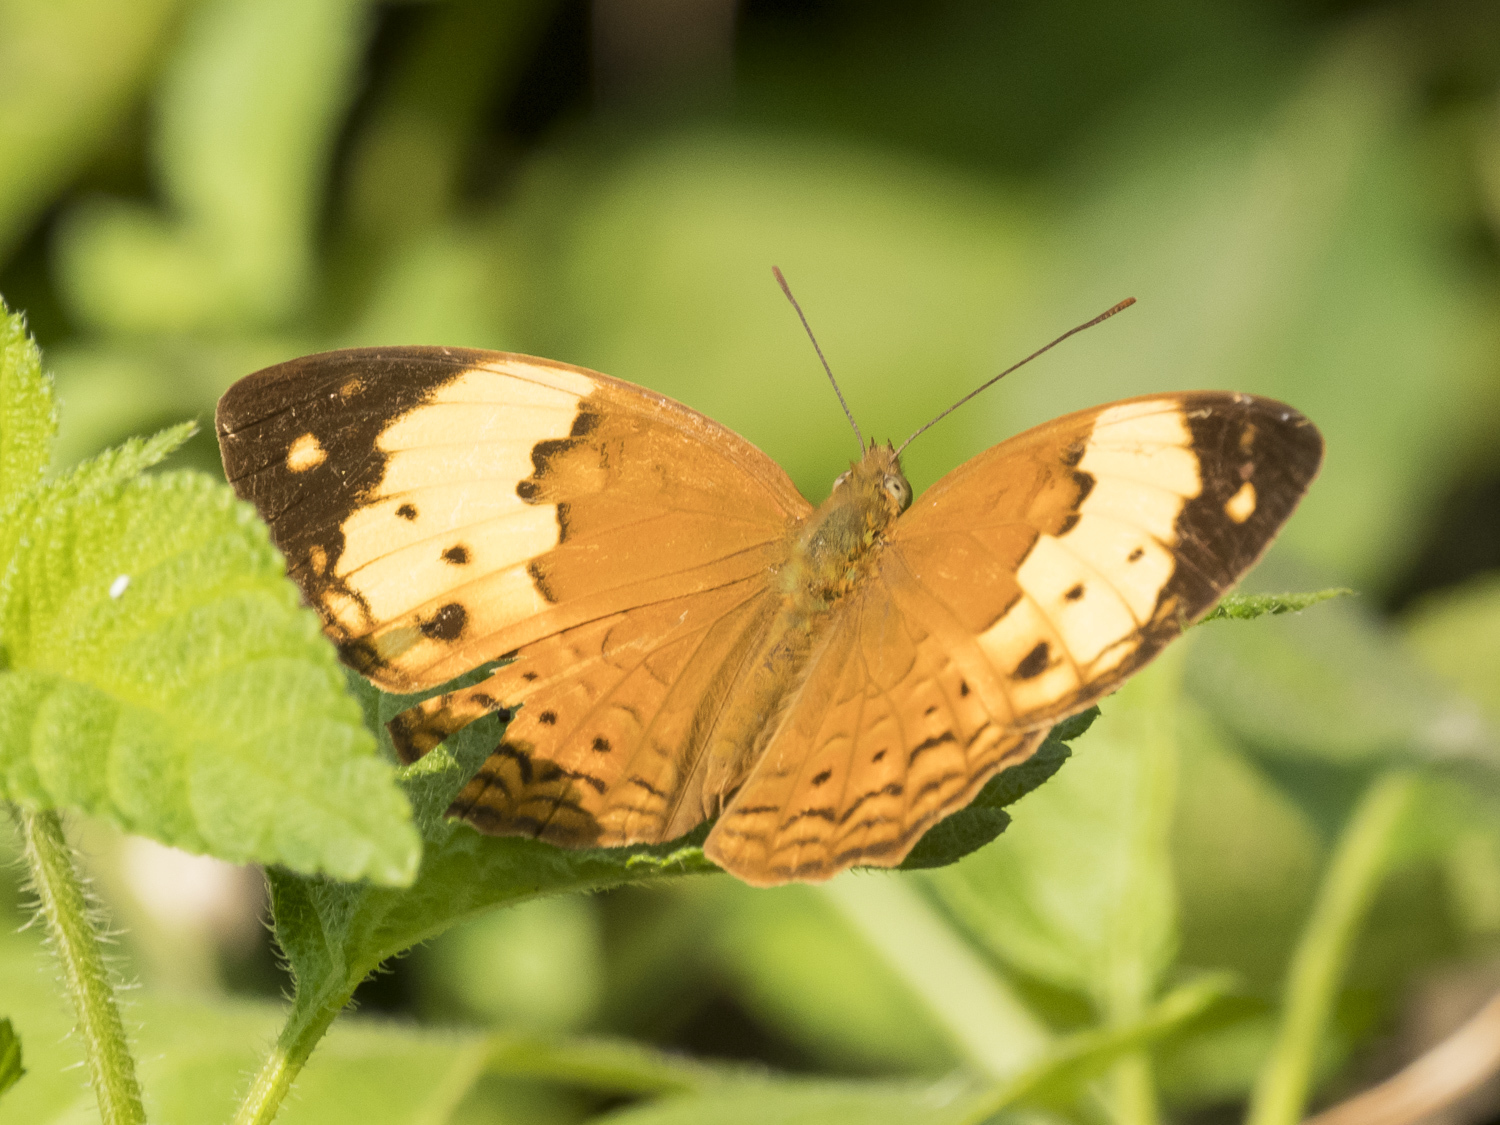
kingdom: Animalia
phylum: Arthropoda
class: Insecta
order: Lepidoptera
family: Nymphalidae
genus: Cupha
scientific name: Cupha erymanthis
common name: Rustic
